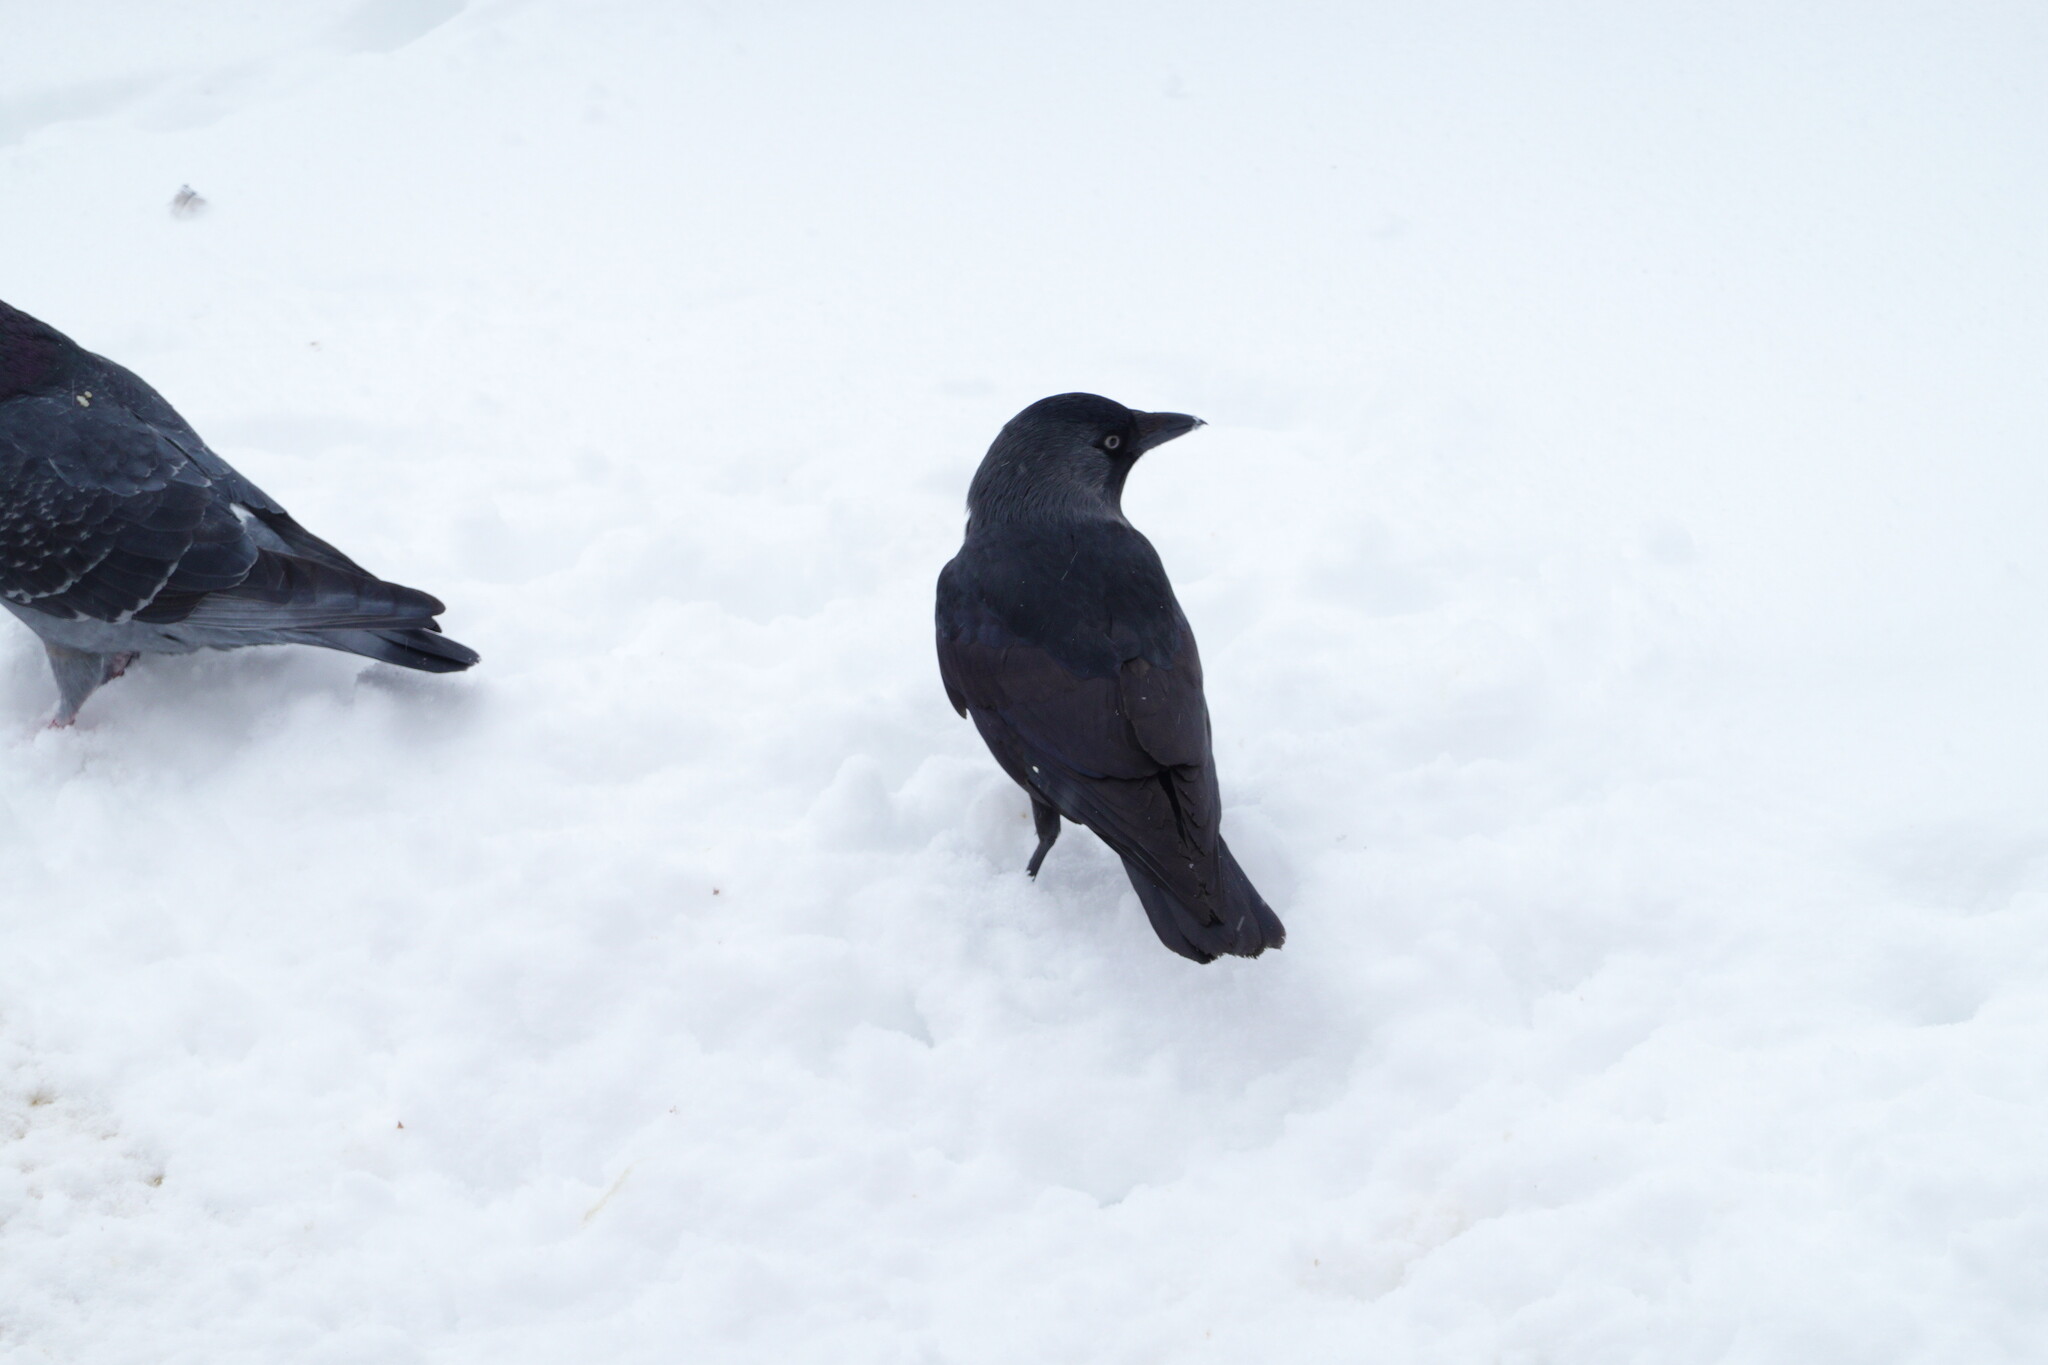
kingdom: Animalia
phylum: Chordata
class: Aves
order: Passeriformes
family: Corvidae
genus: Coloeus
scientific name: Coloeus monedula
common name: Western jackdaw
